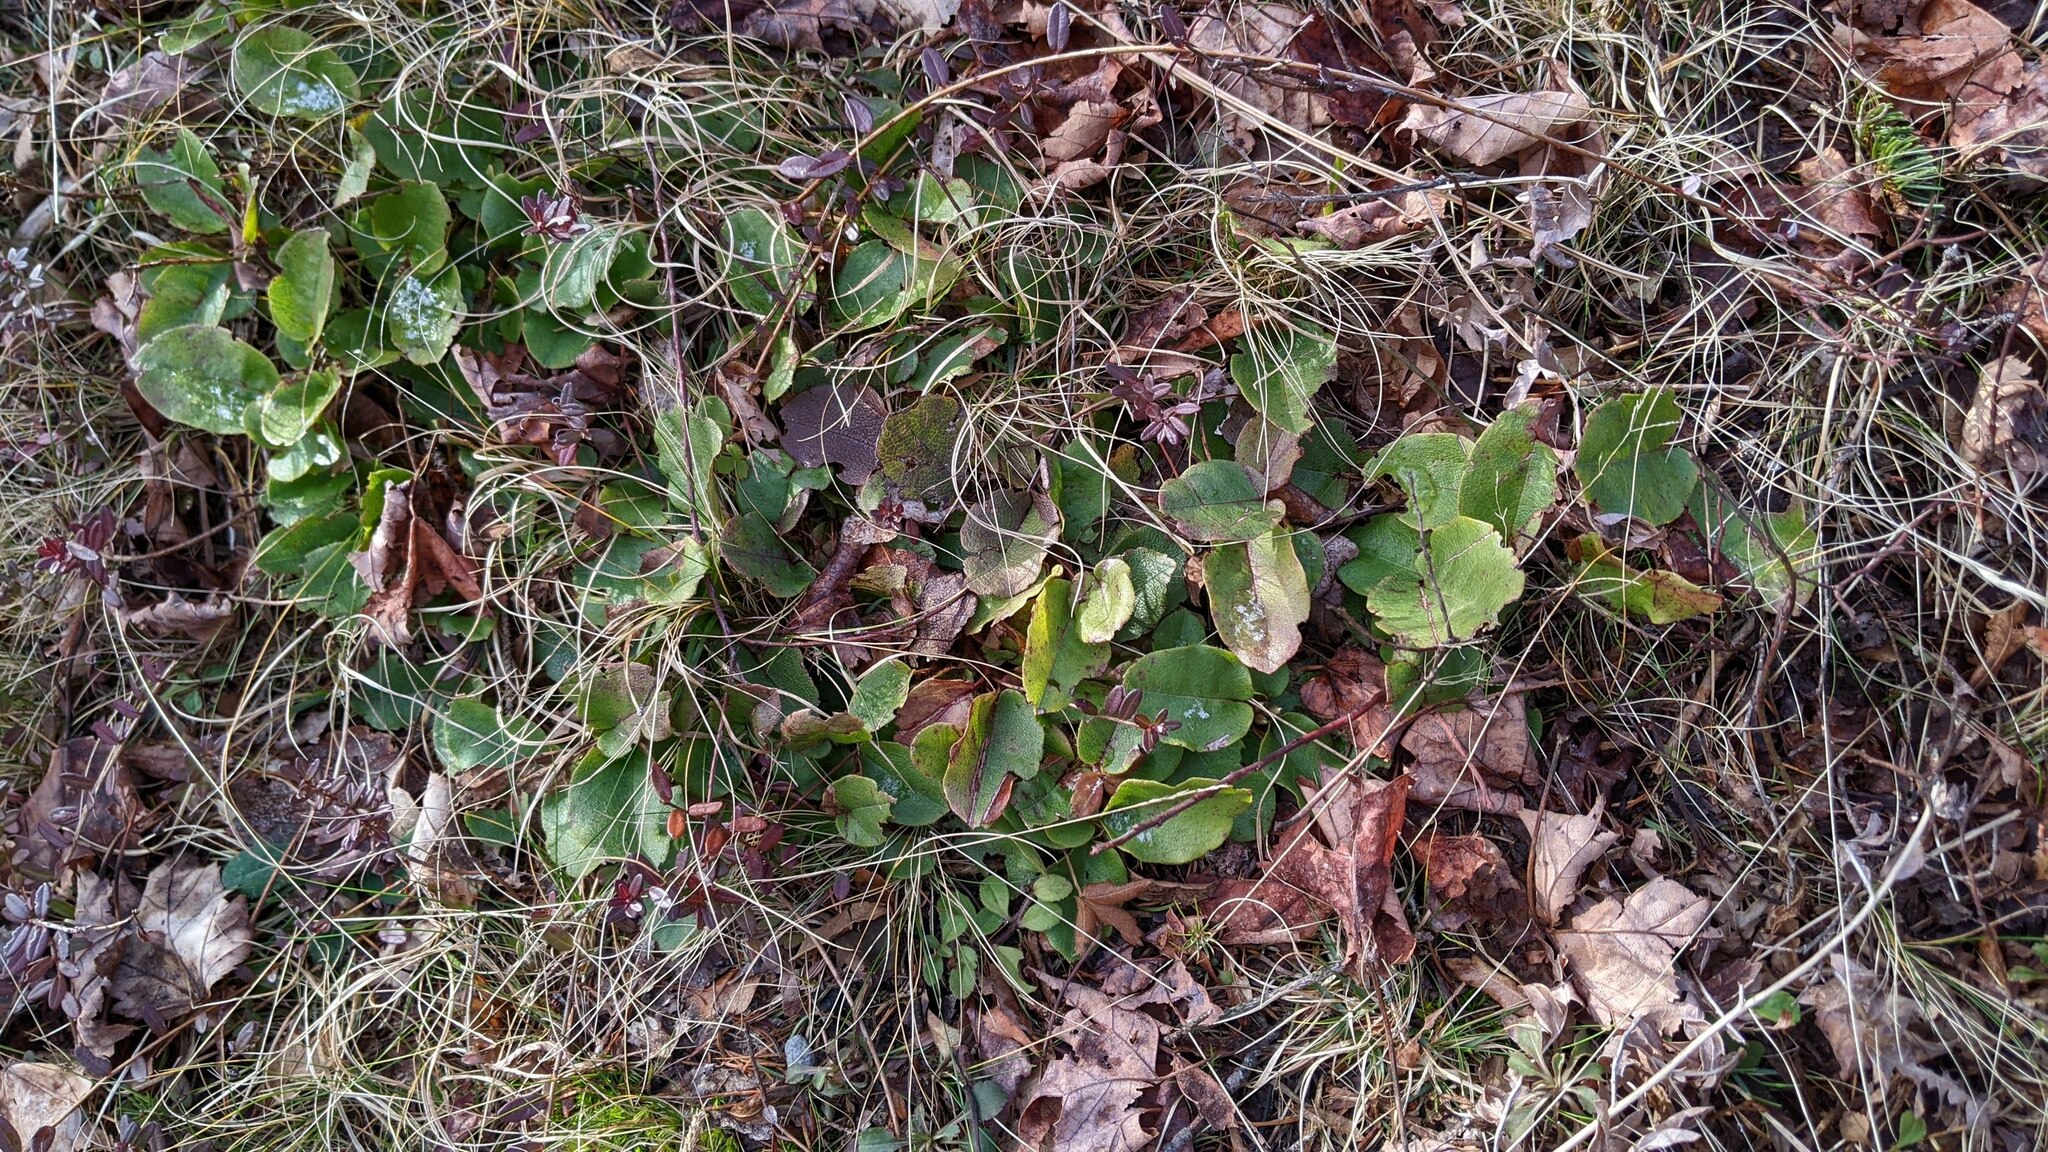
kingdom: Plantae
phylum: Tracheophyta
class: Magnoliopsida
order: Ericales
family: Ericaceae
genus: Epigaea
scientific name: Epigaea repens
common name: Gravelroot
